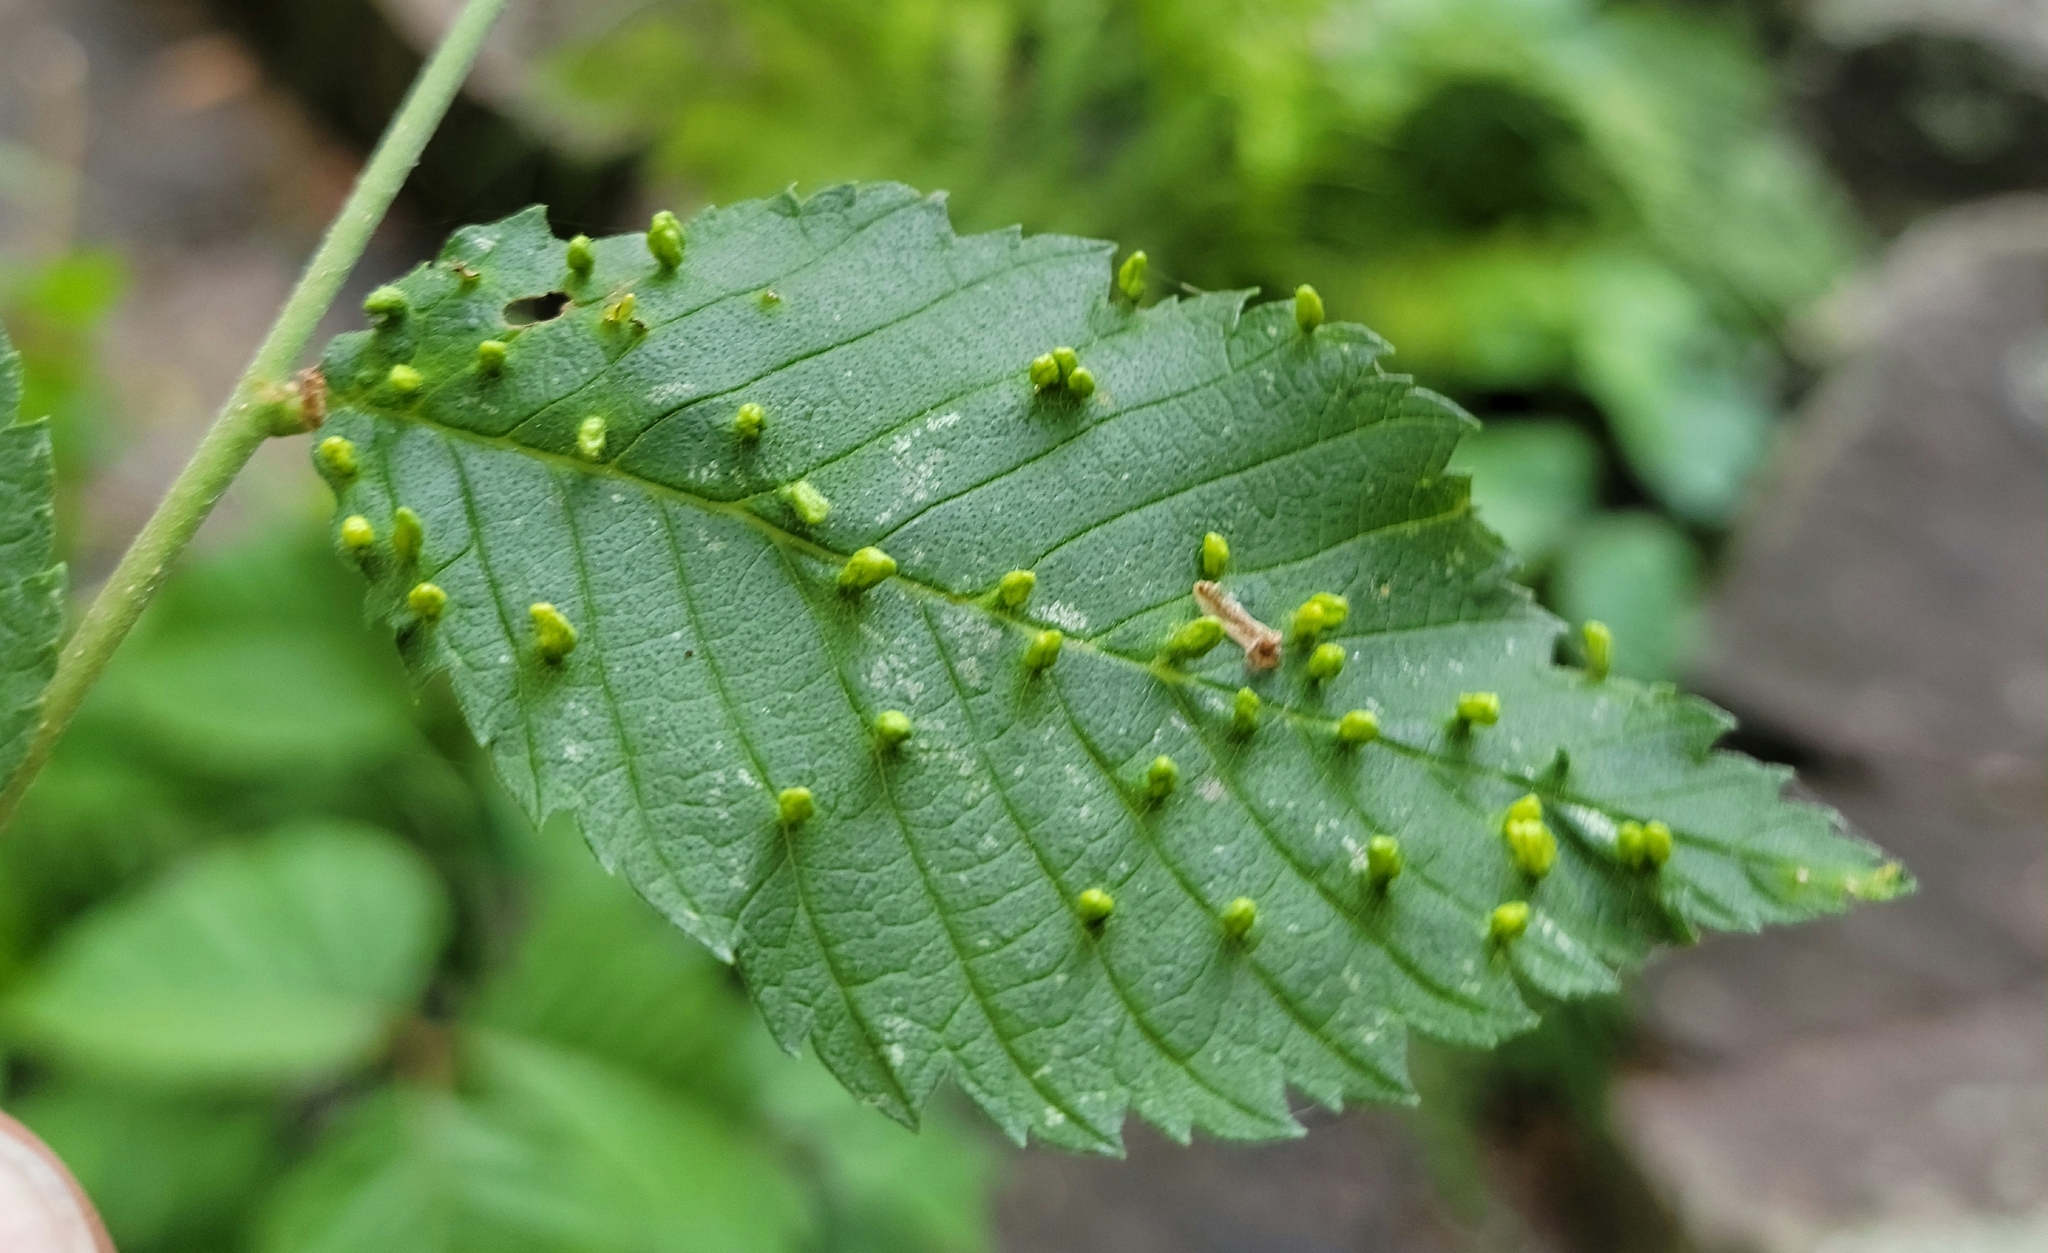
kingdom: Animalia
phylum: Arthropoda
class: Arachnida
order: Trombidiformes
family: Eriophyidae
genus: Aceria
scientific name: Aceria
